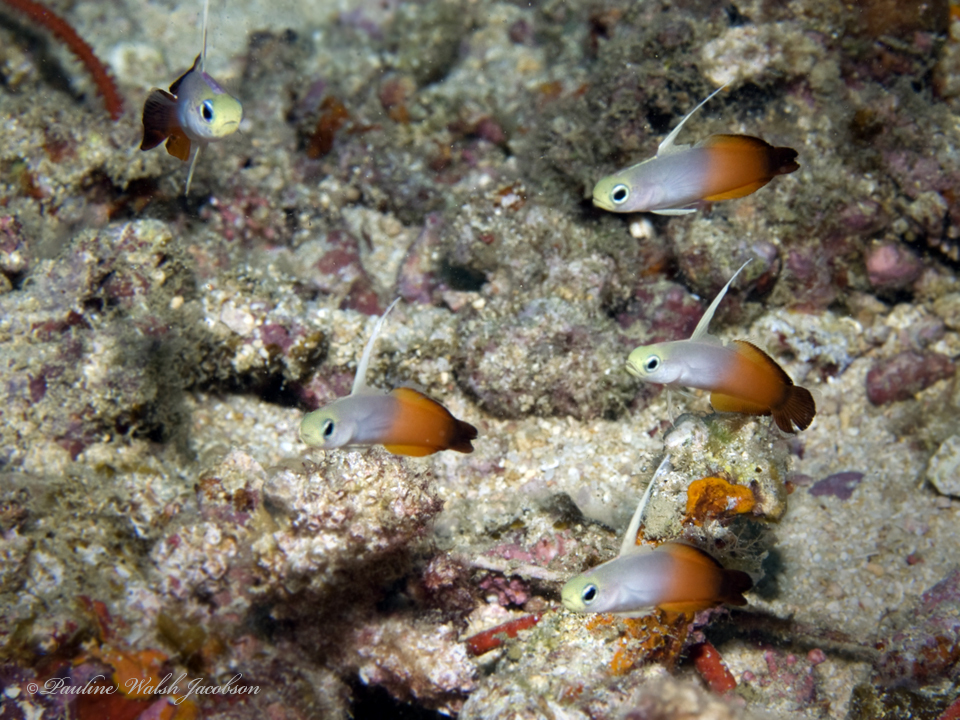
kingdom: Animalia
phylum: Chordata
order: Perciformes
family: Microdesmidae
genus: Nemateleotris
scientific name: Nemateleotris magnifica
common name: Fire goby
